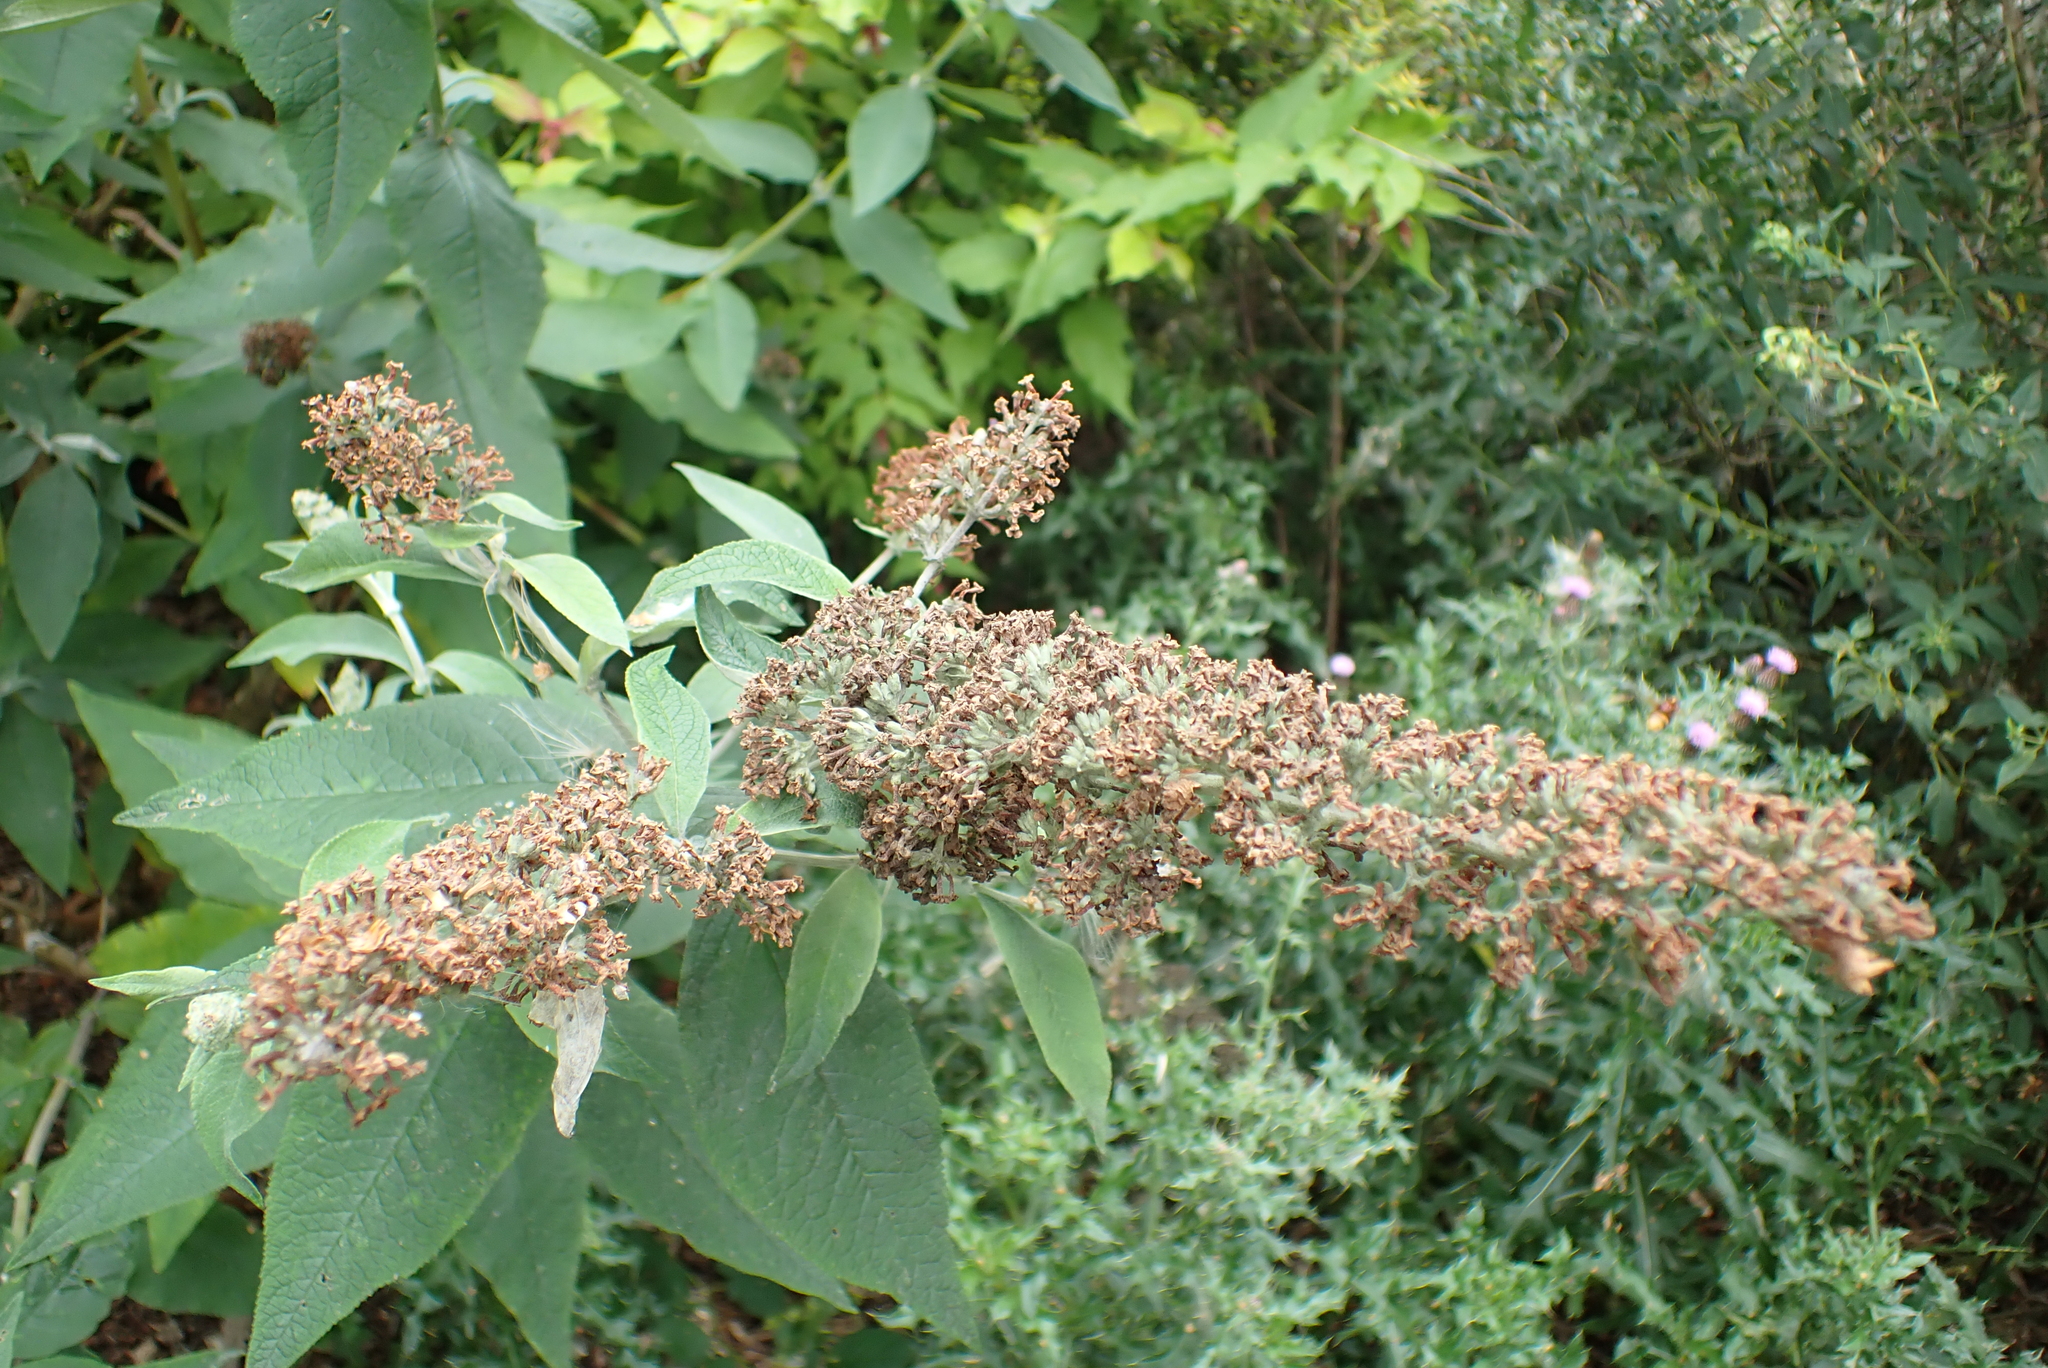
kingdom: Plantae
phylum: Tracheophyta
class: Magnoliopsida
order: Lamiales
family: Scrophulariaceae
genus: Buddleja
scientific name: Buddleja davidii
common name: Butterfly-bush
